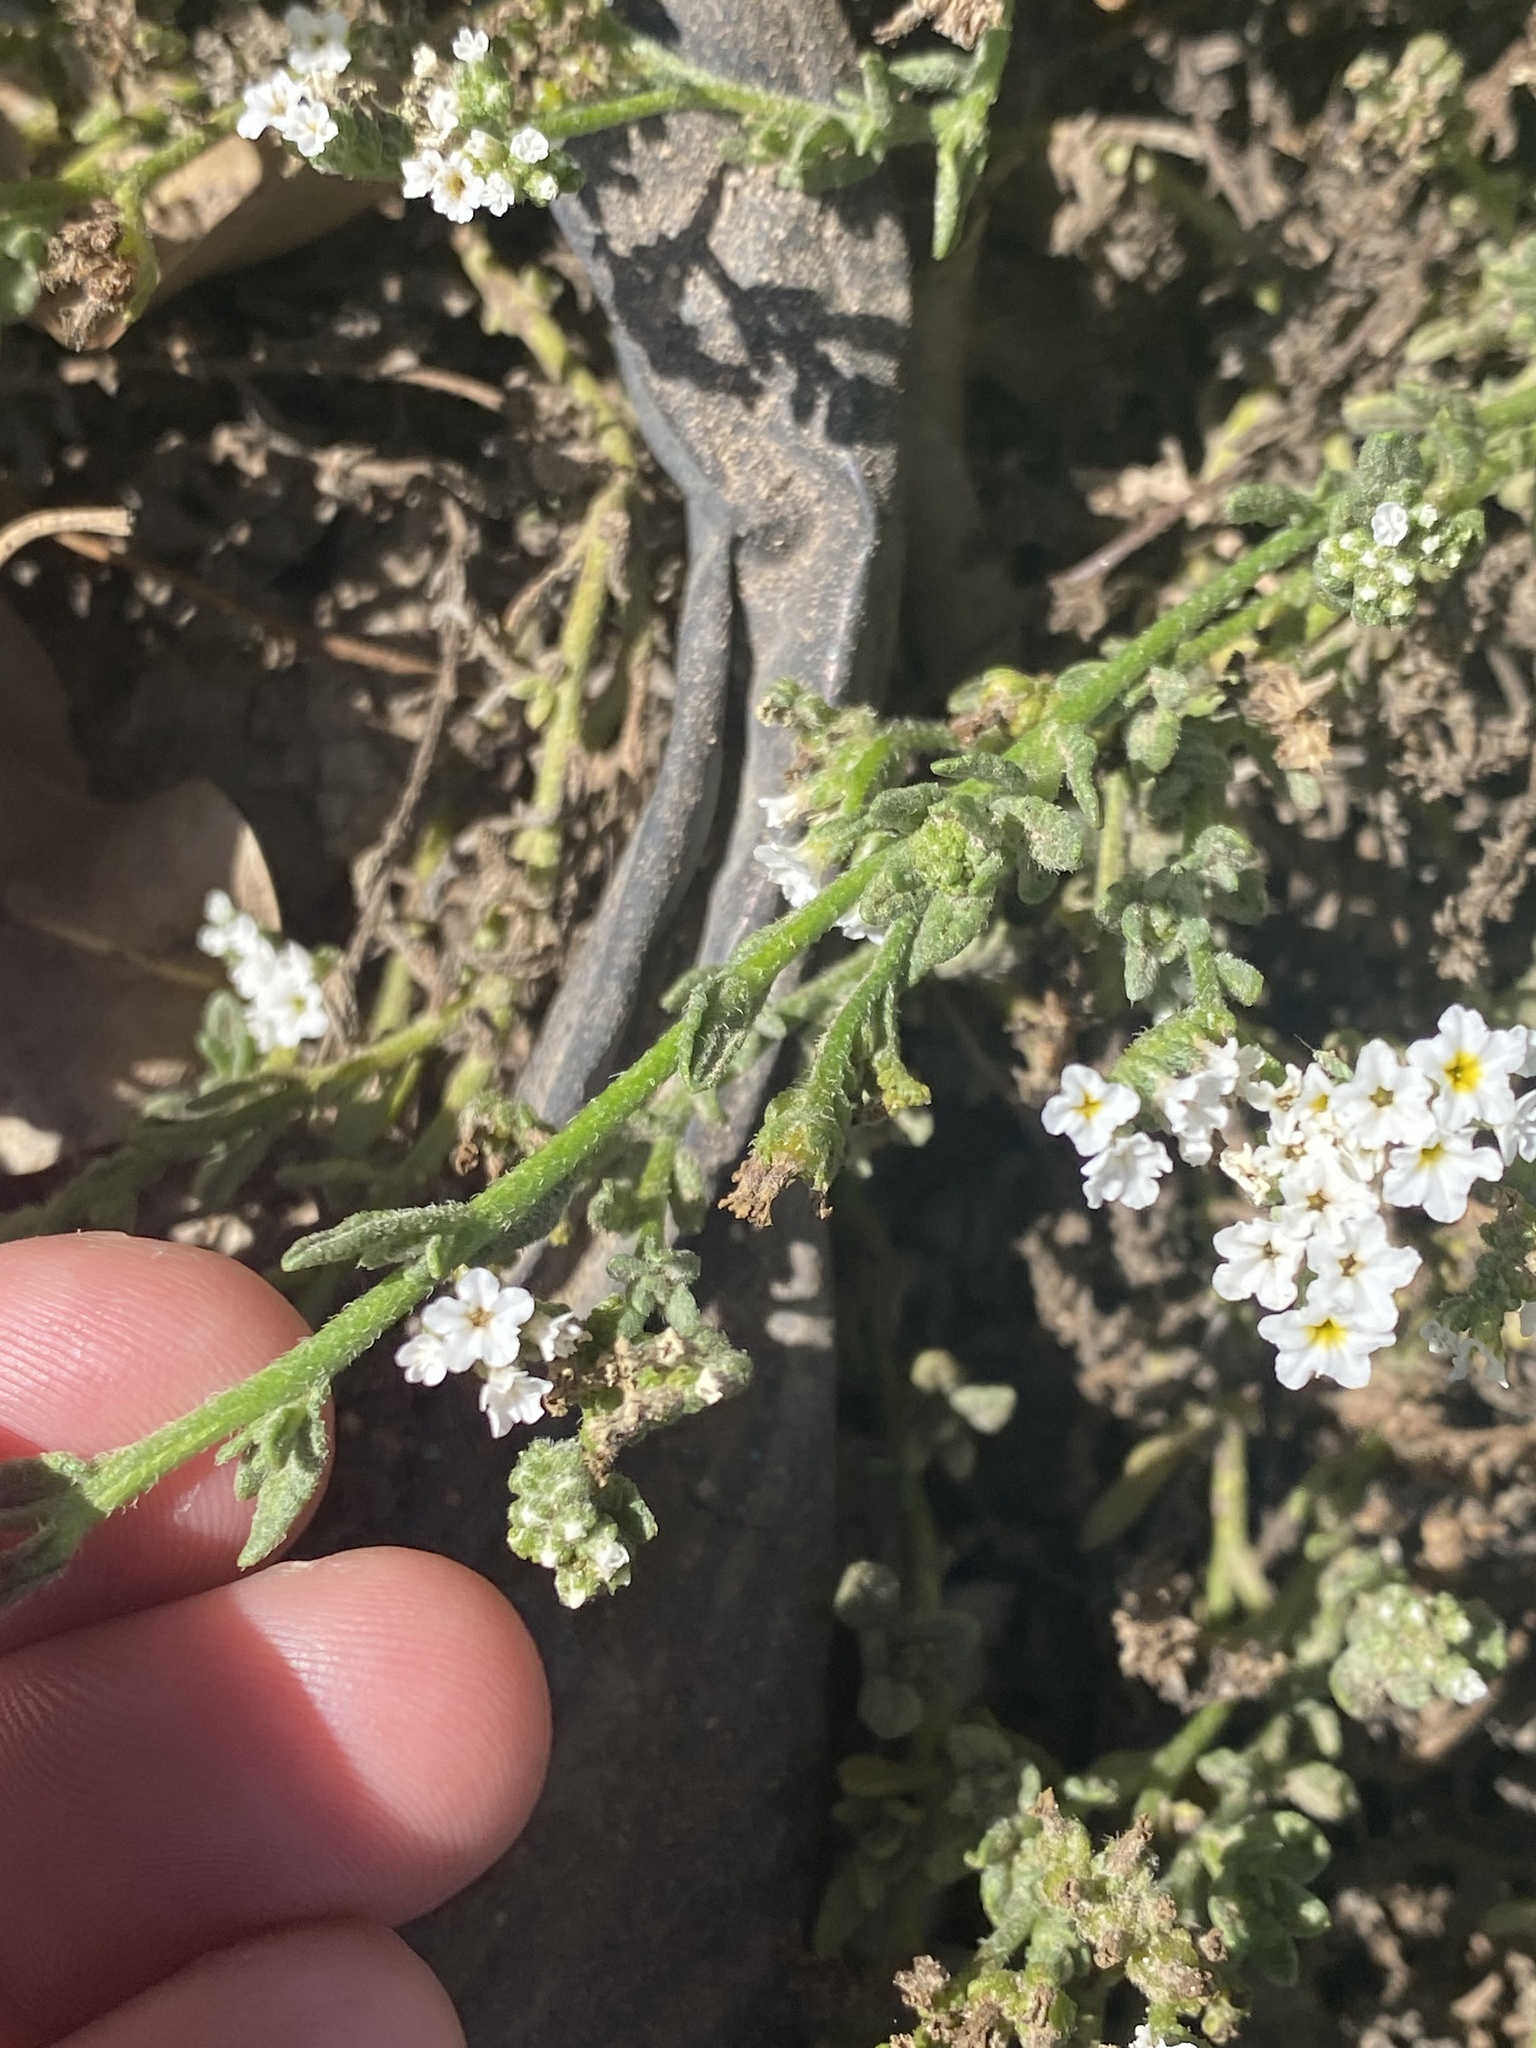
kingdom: Plantae
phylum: Tracheophyta
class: Magnoliopsida
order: Boraginales
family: Heliotropiaceae
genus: Heliotropium
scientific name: Heliotropium ramosissimum
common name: Wavy heliotrope
